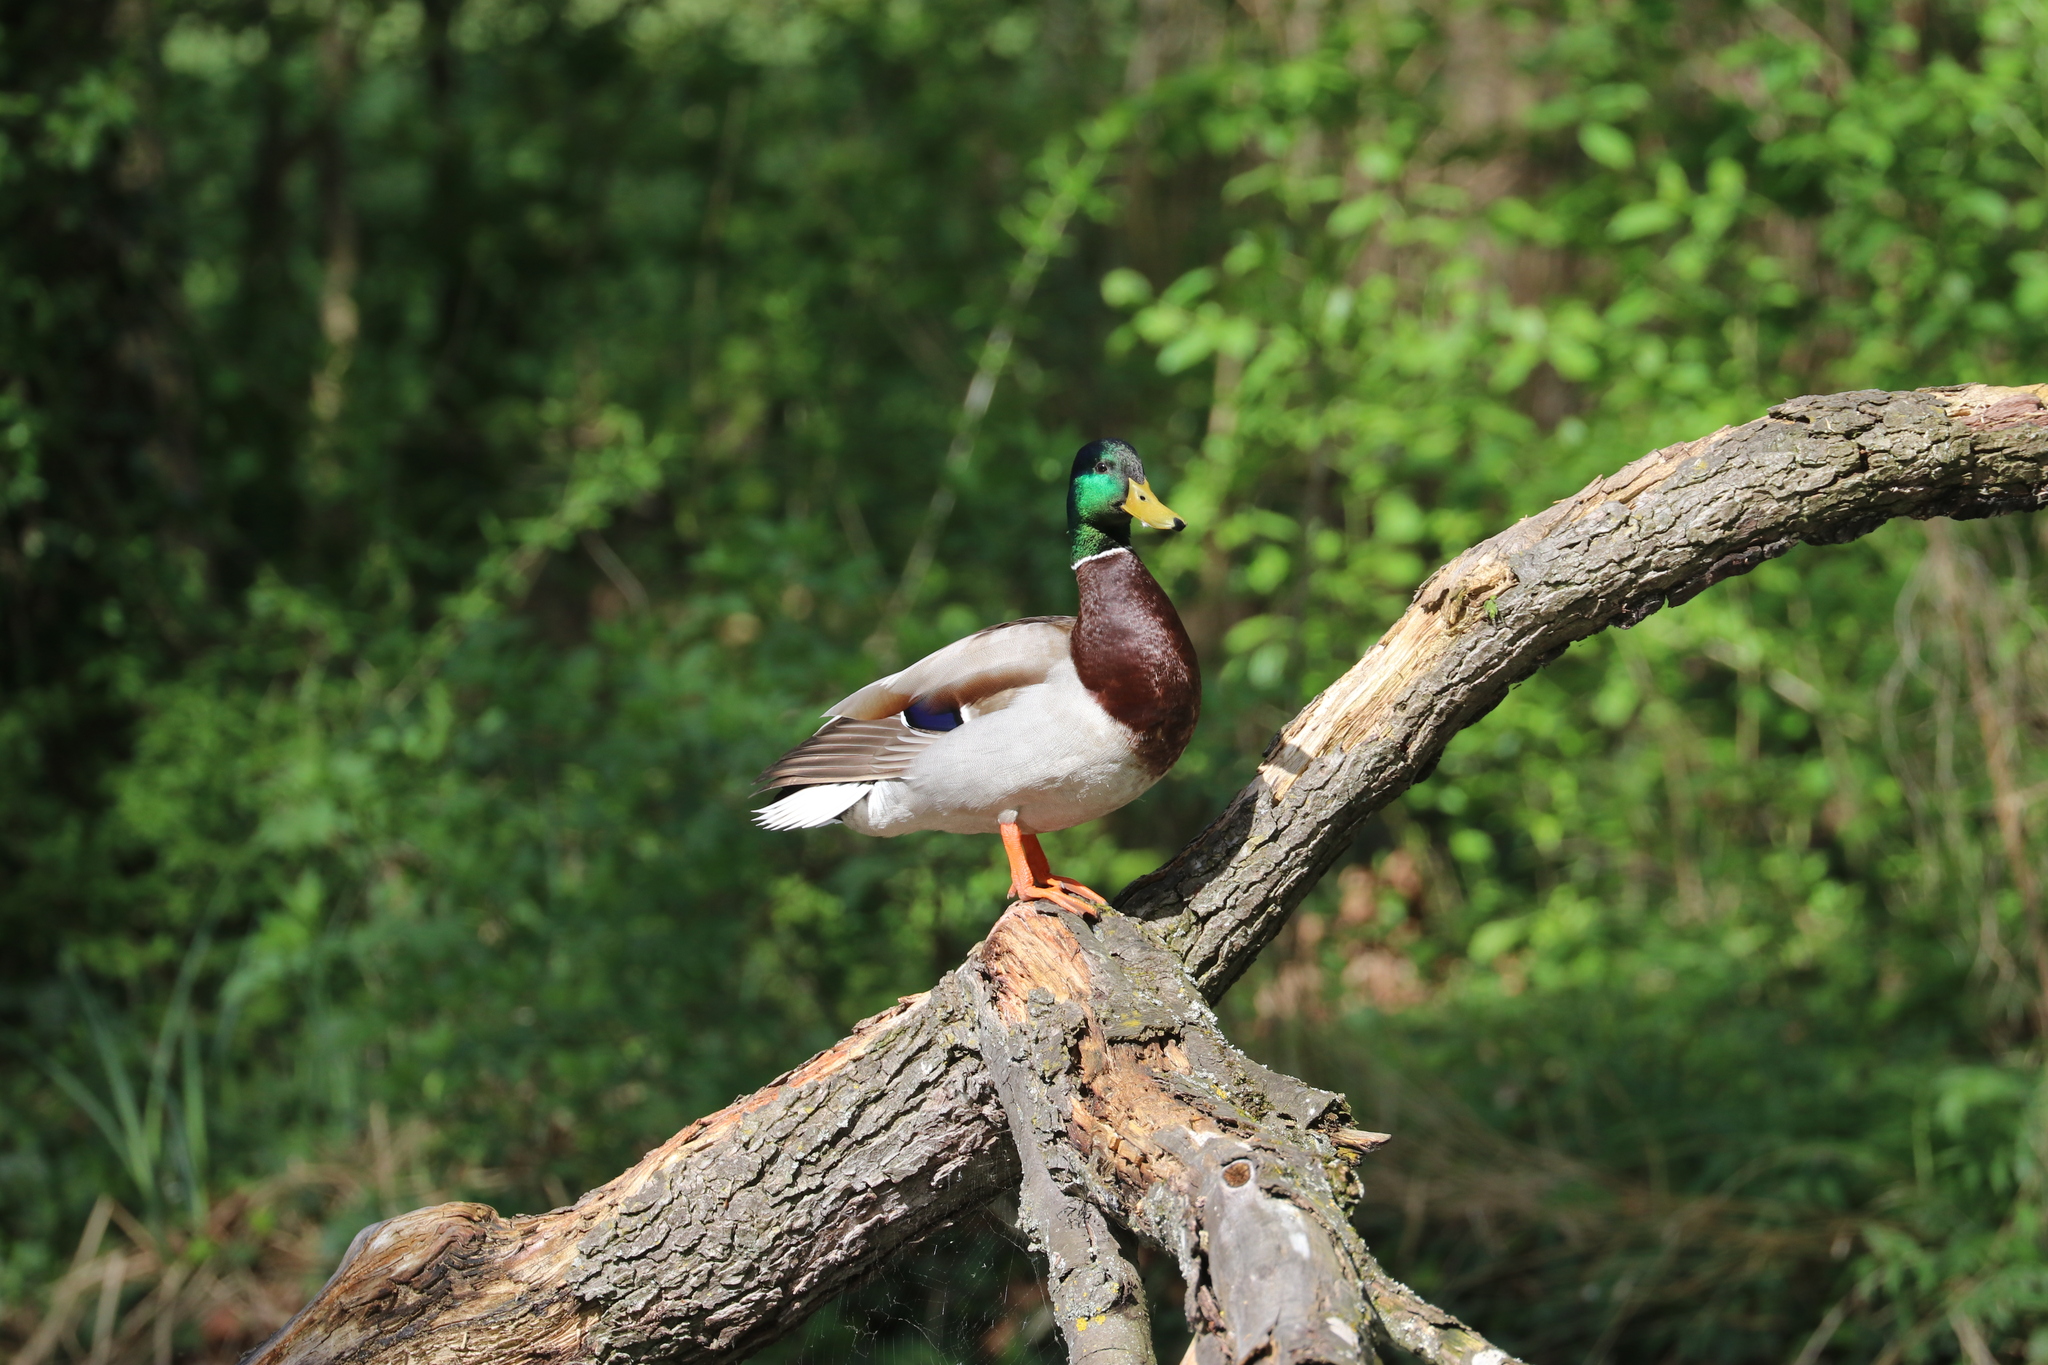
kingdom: Animalia
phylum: Chordata
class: Aves
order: Anseriformes
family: Anatidae
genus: Anas
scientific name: Anas platyrhynchos
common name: Mallard
